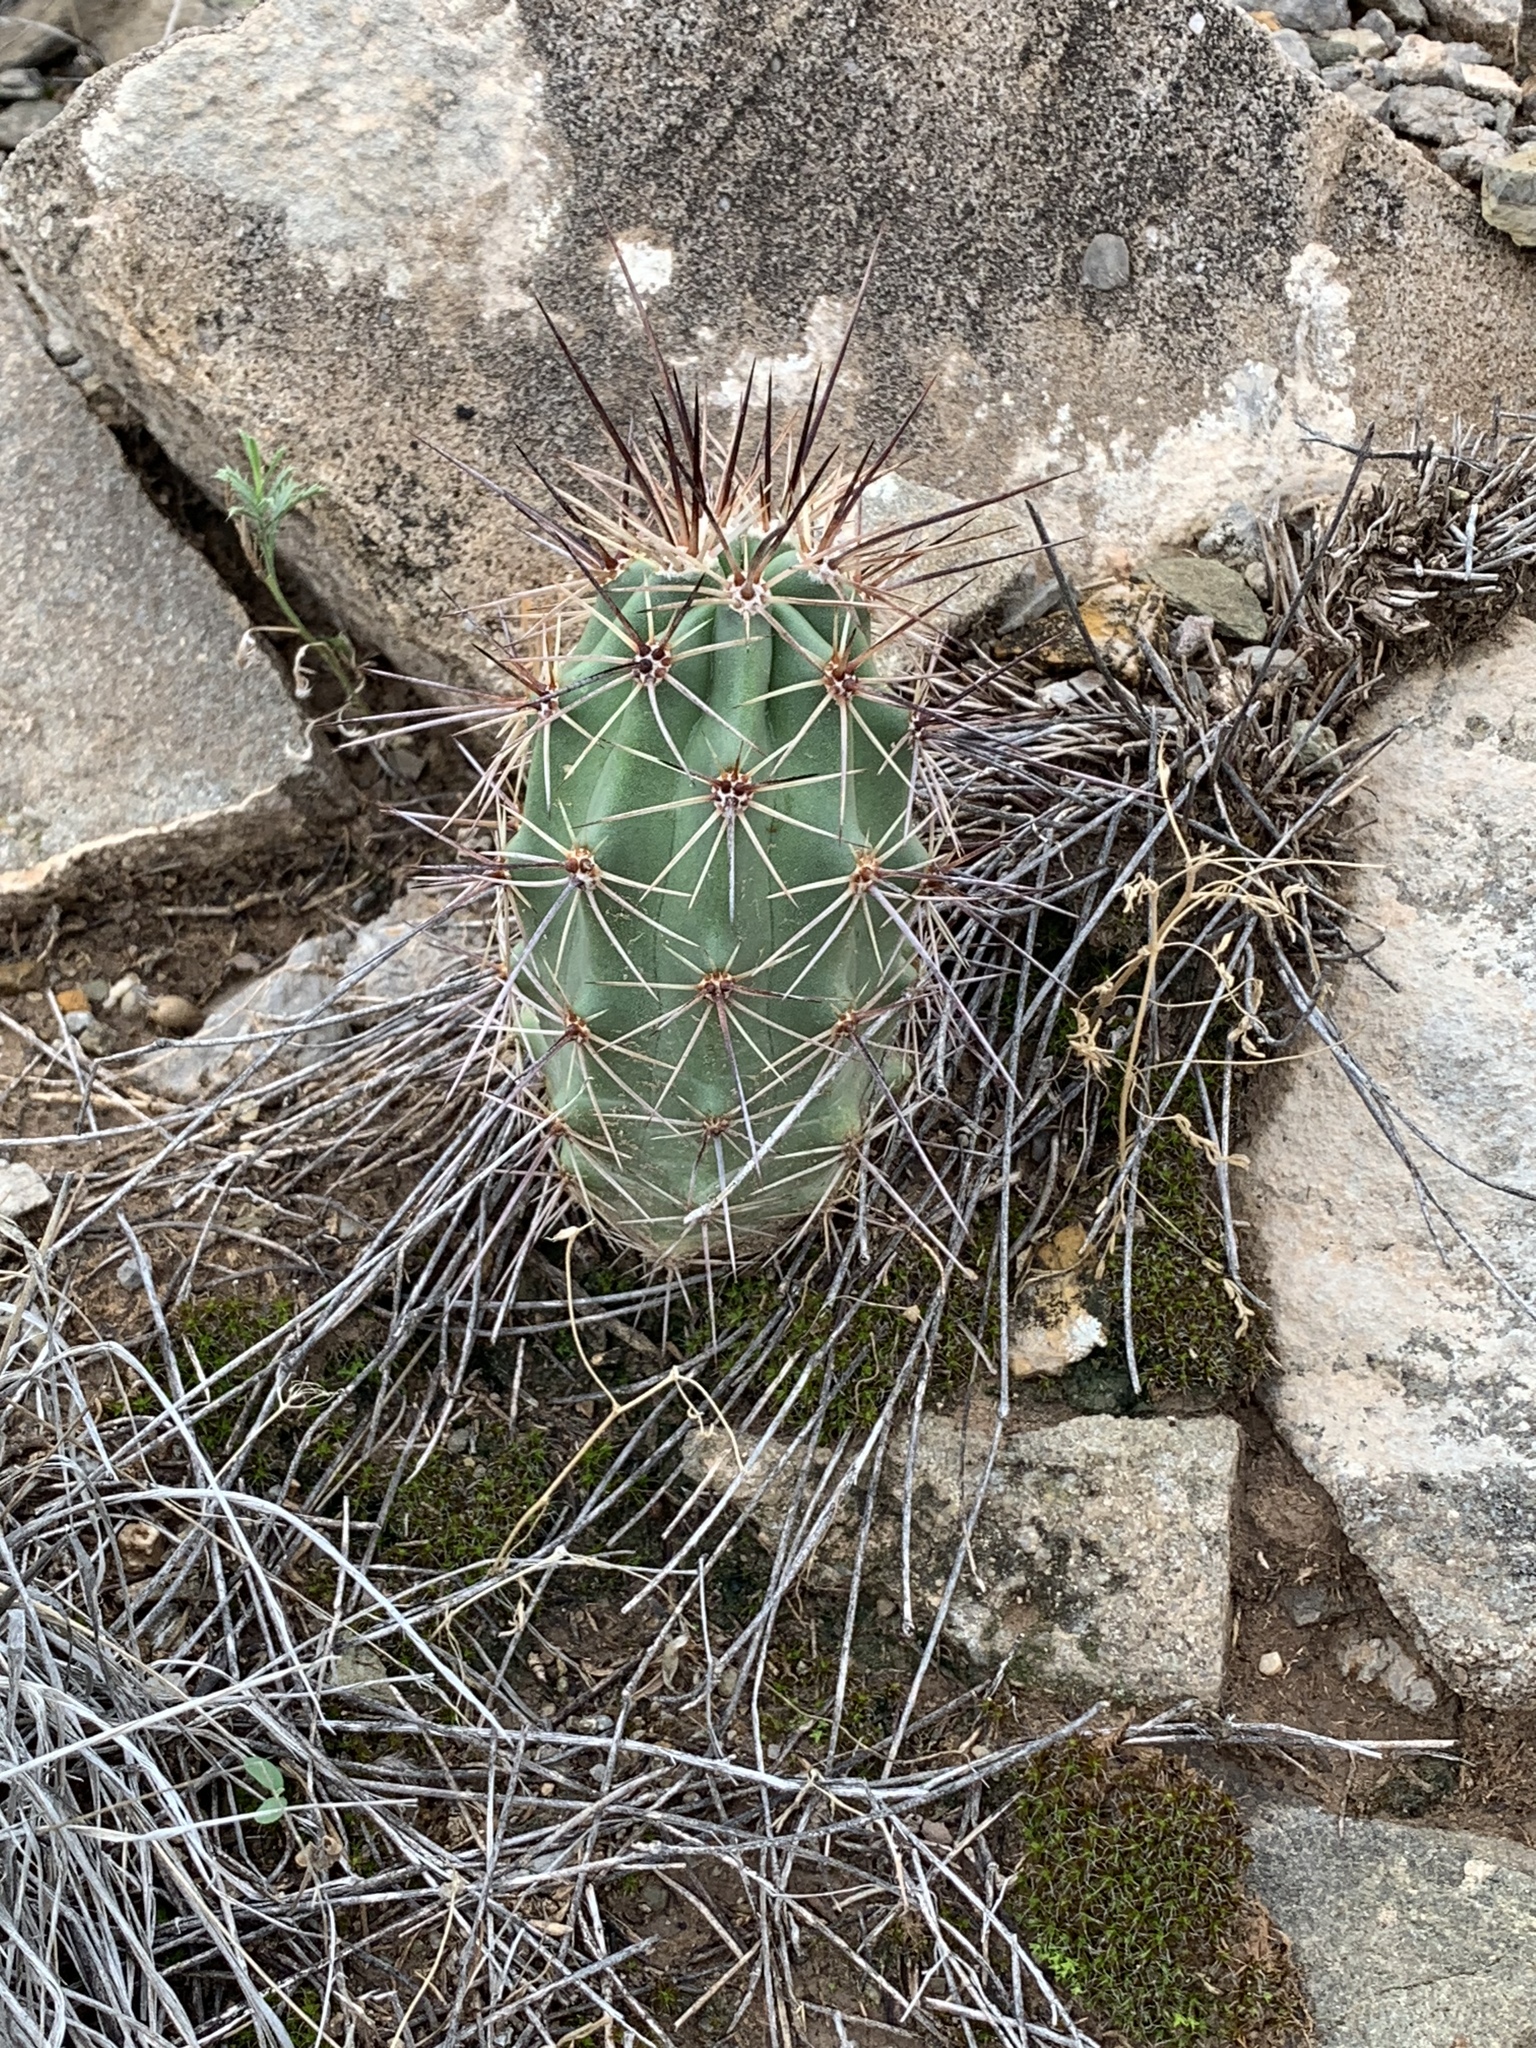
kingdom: Plantae
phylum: Tracheophyta
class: Magnoliopsida
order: Caryophyllales
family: Cactaceae
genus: Echinocereus
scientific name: Echinocereus coccineus
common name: Scarlet hedgehog cactus
